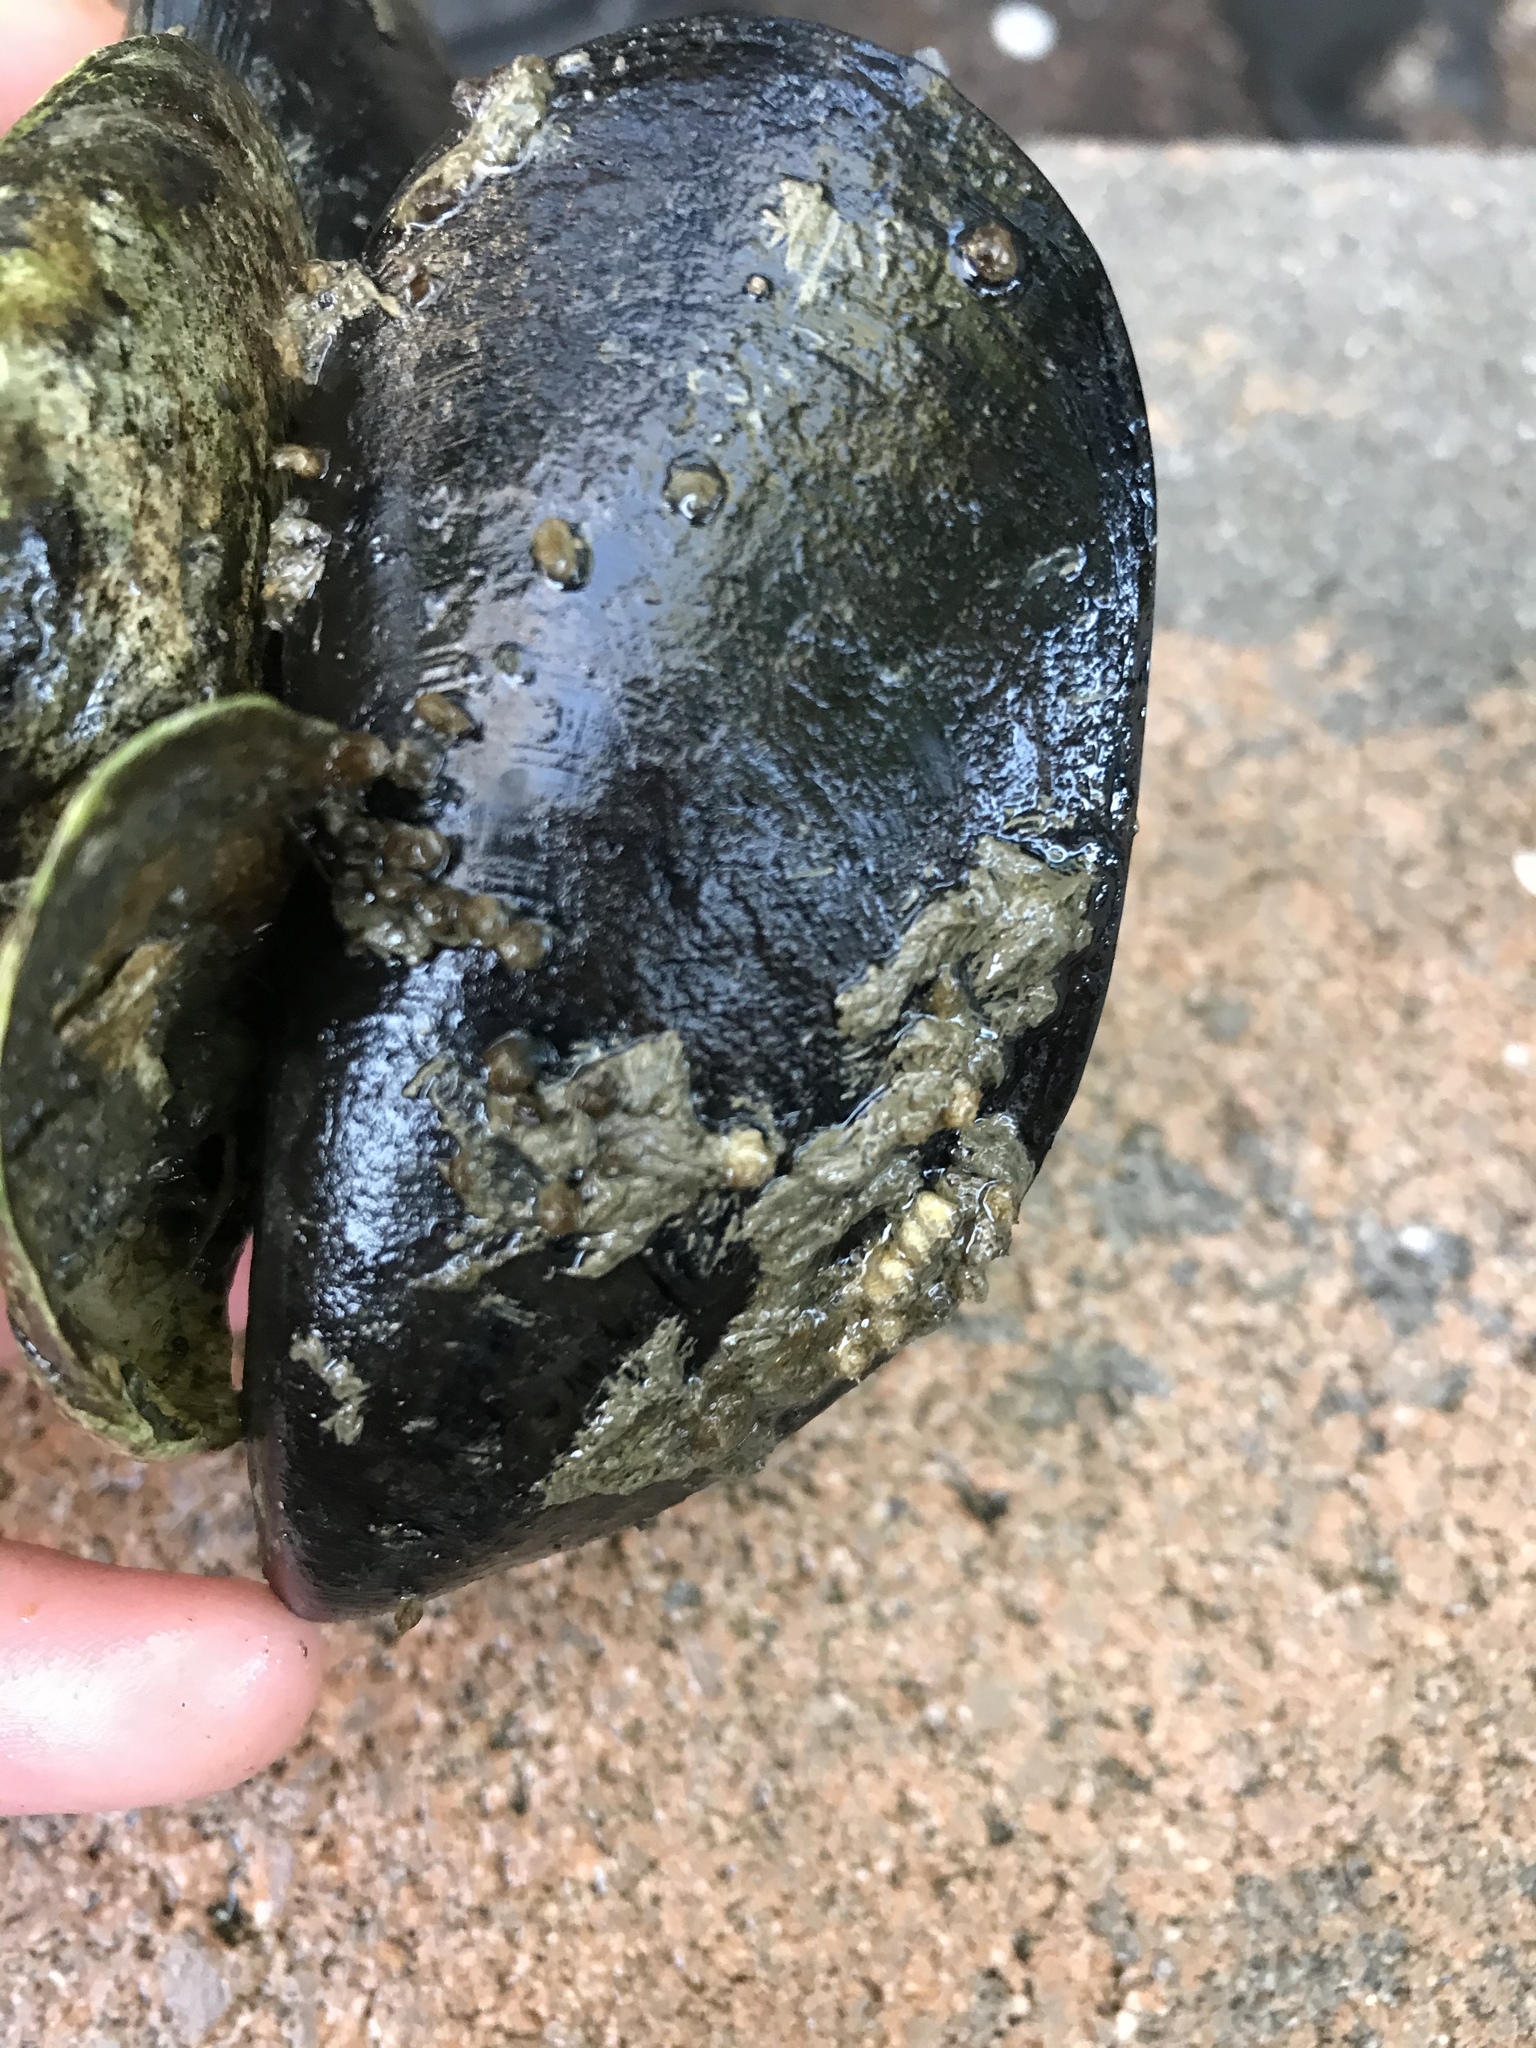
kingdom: Animalia
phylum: Mollusca
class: Bivalvia
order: Mytilida
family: Mytilidae
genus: Mytilus
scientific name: Mytilus
